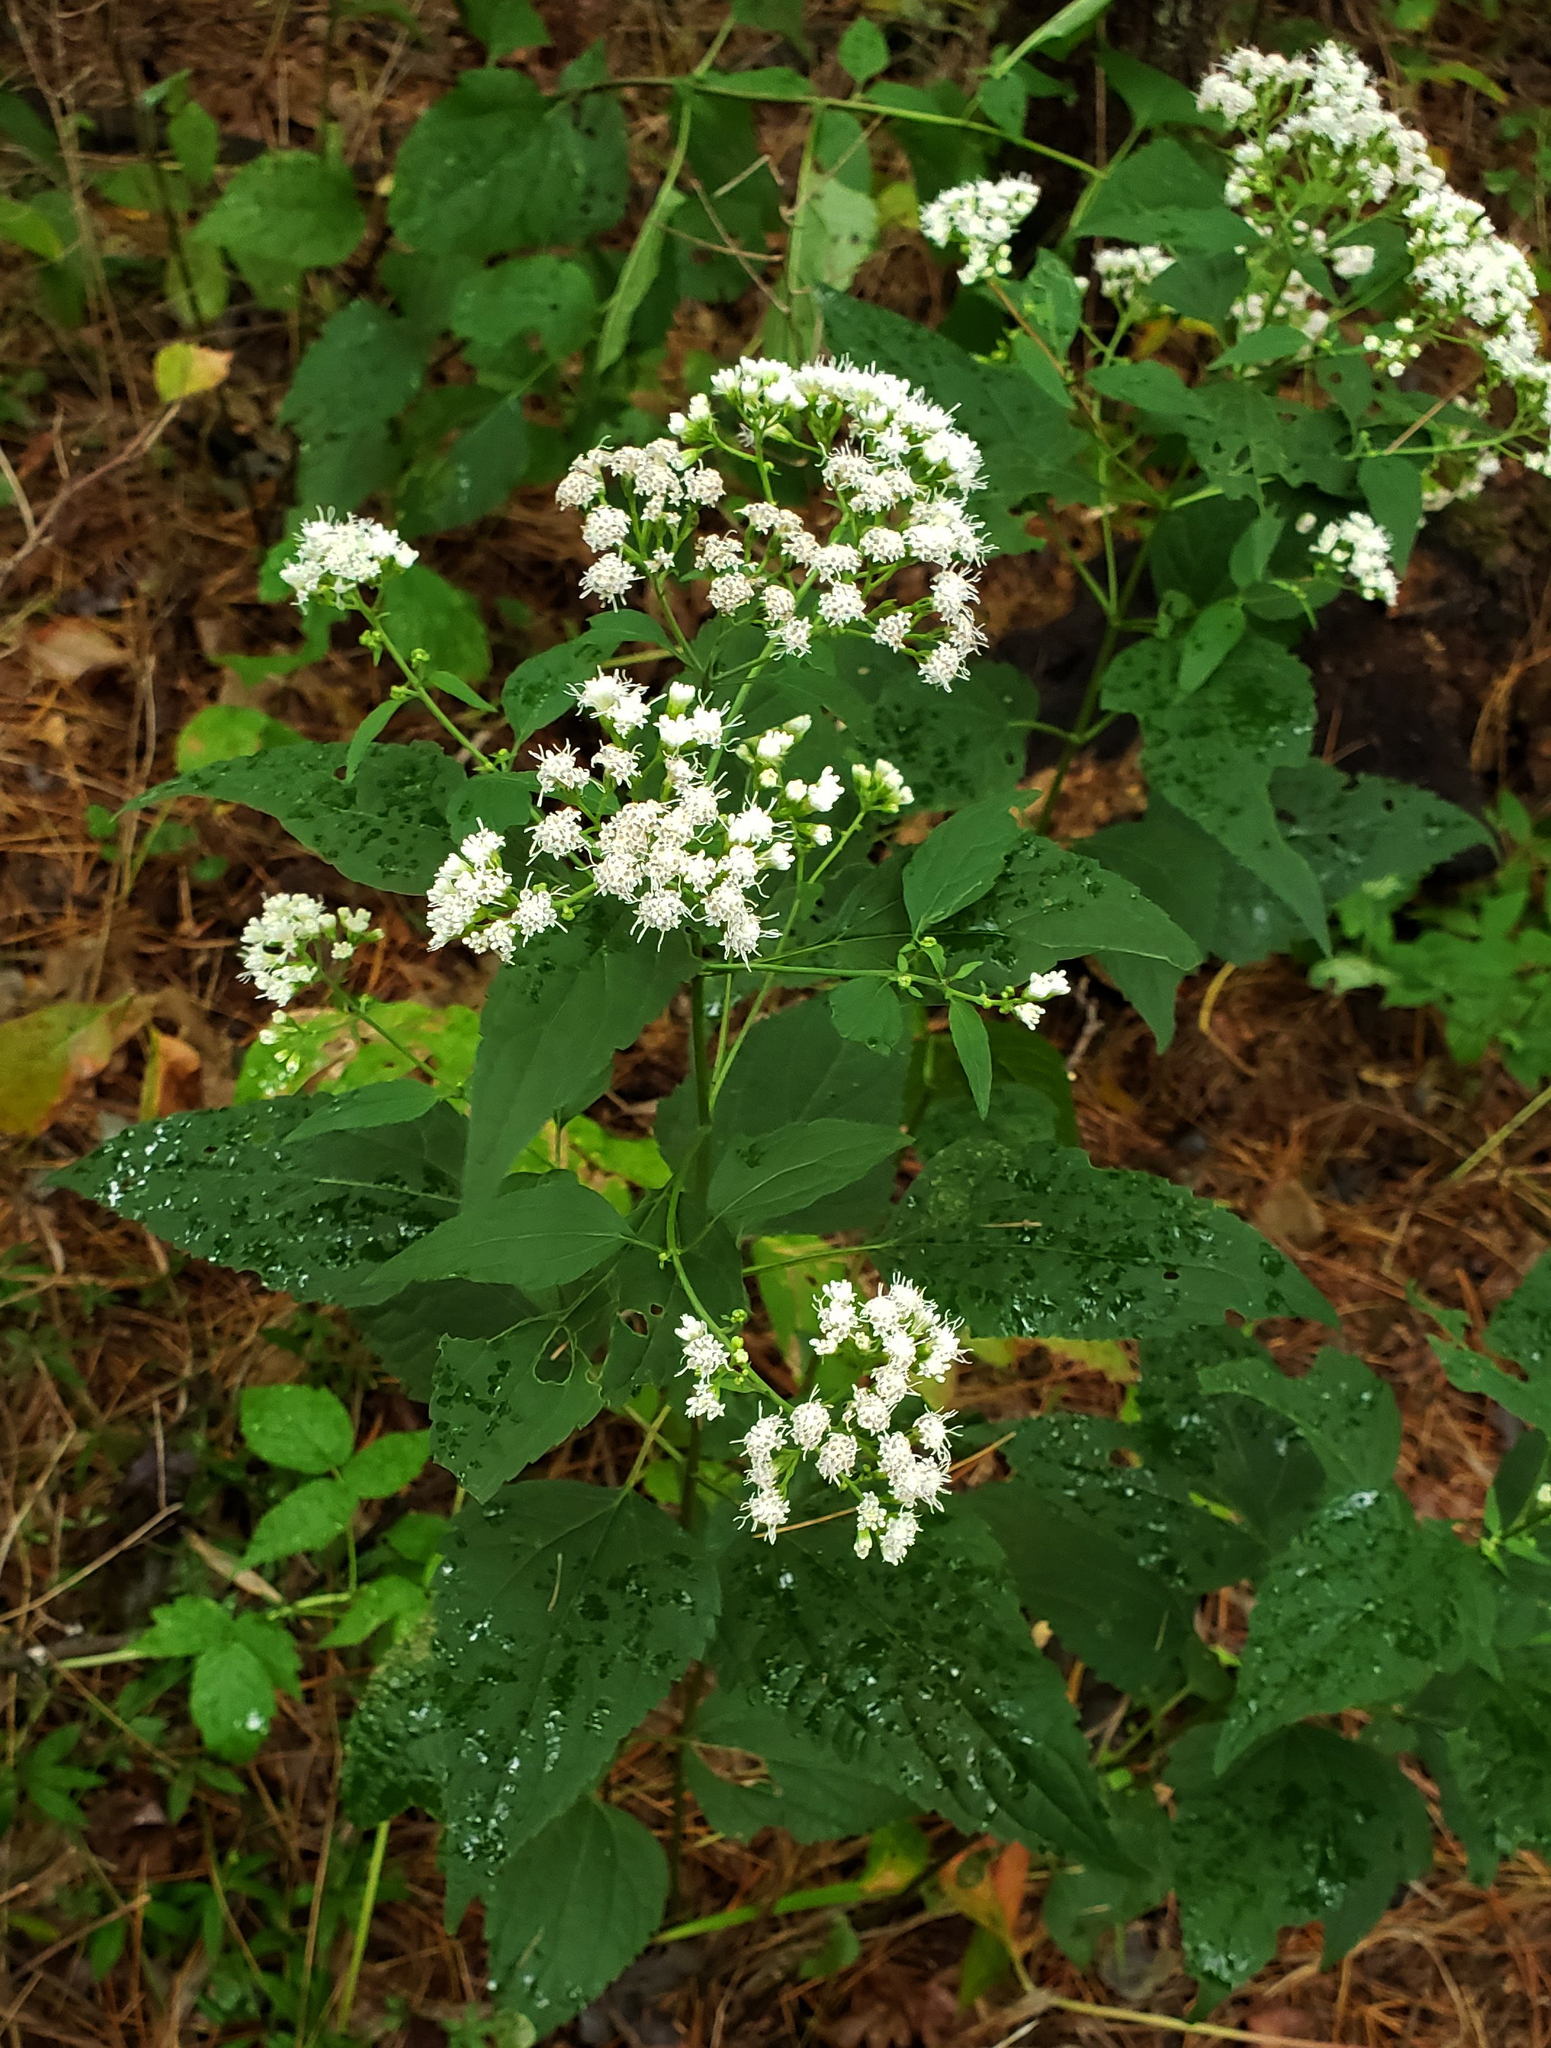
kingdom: Plantae
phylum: Tracheophyta
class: Magnoliopsida
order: Asterales
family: Asteraceae
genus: Ageratina
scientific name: Ageratina altissima
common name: White snakeroot
